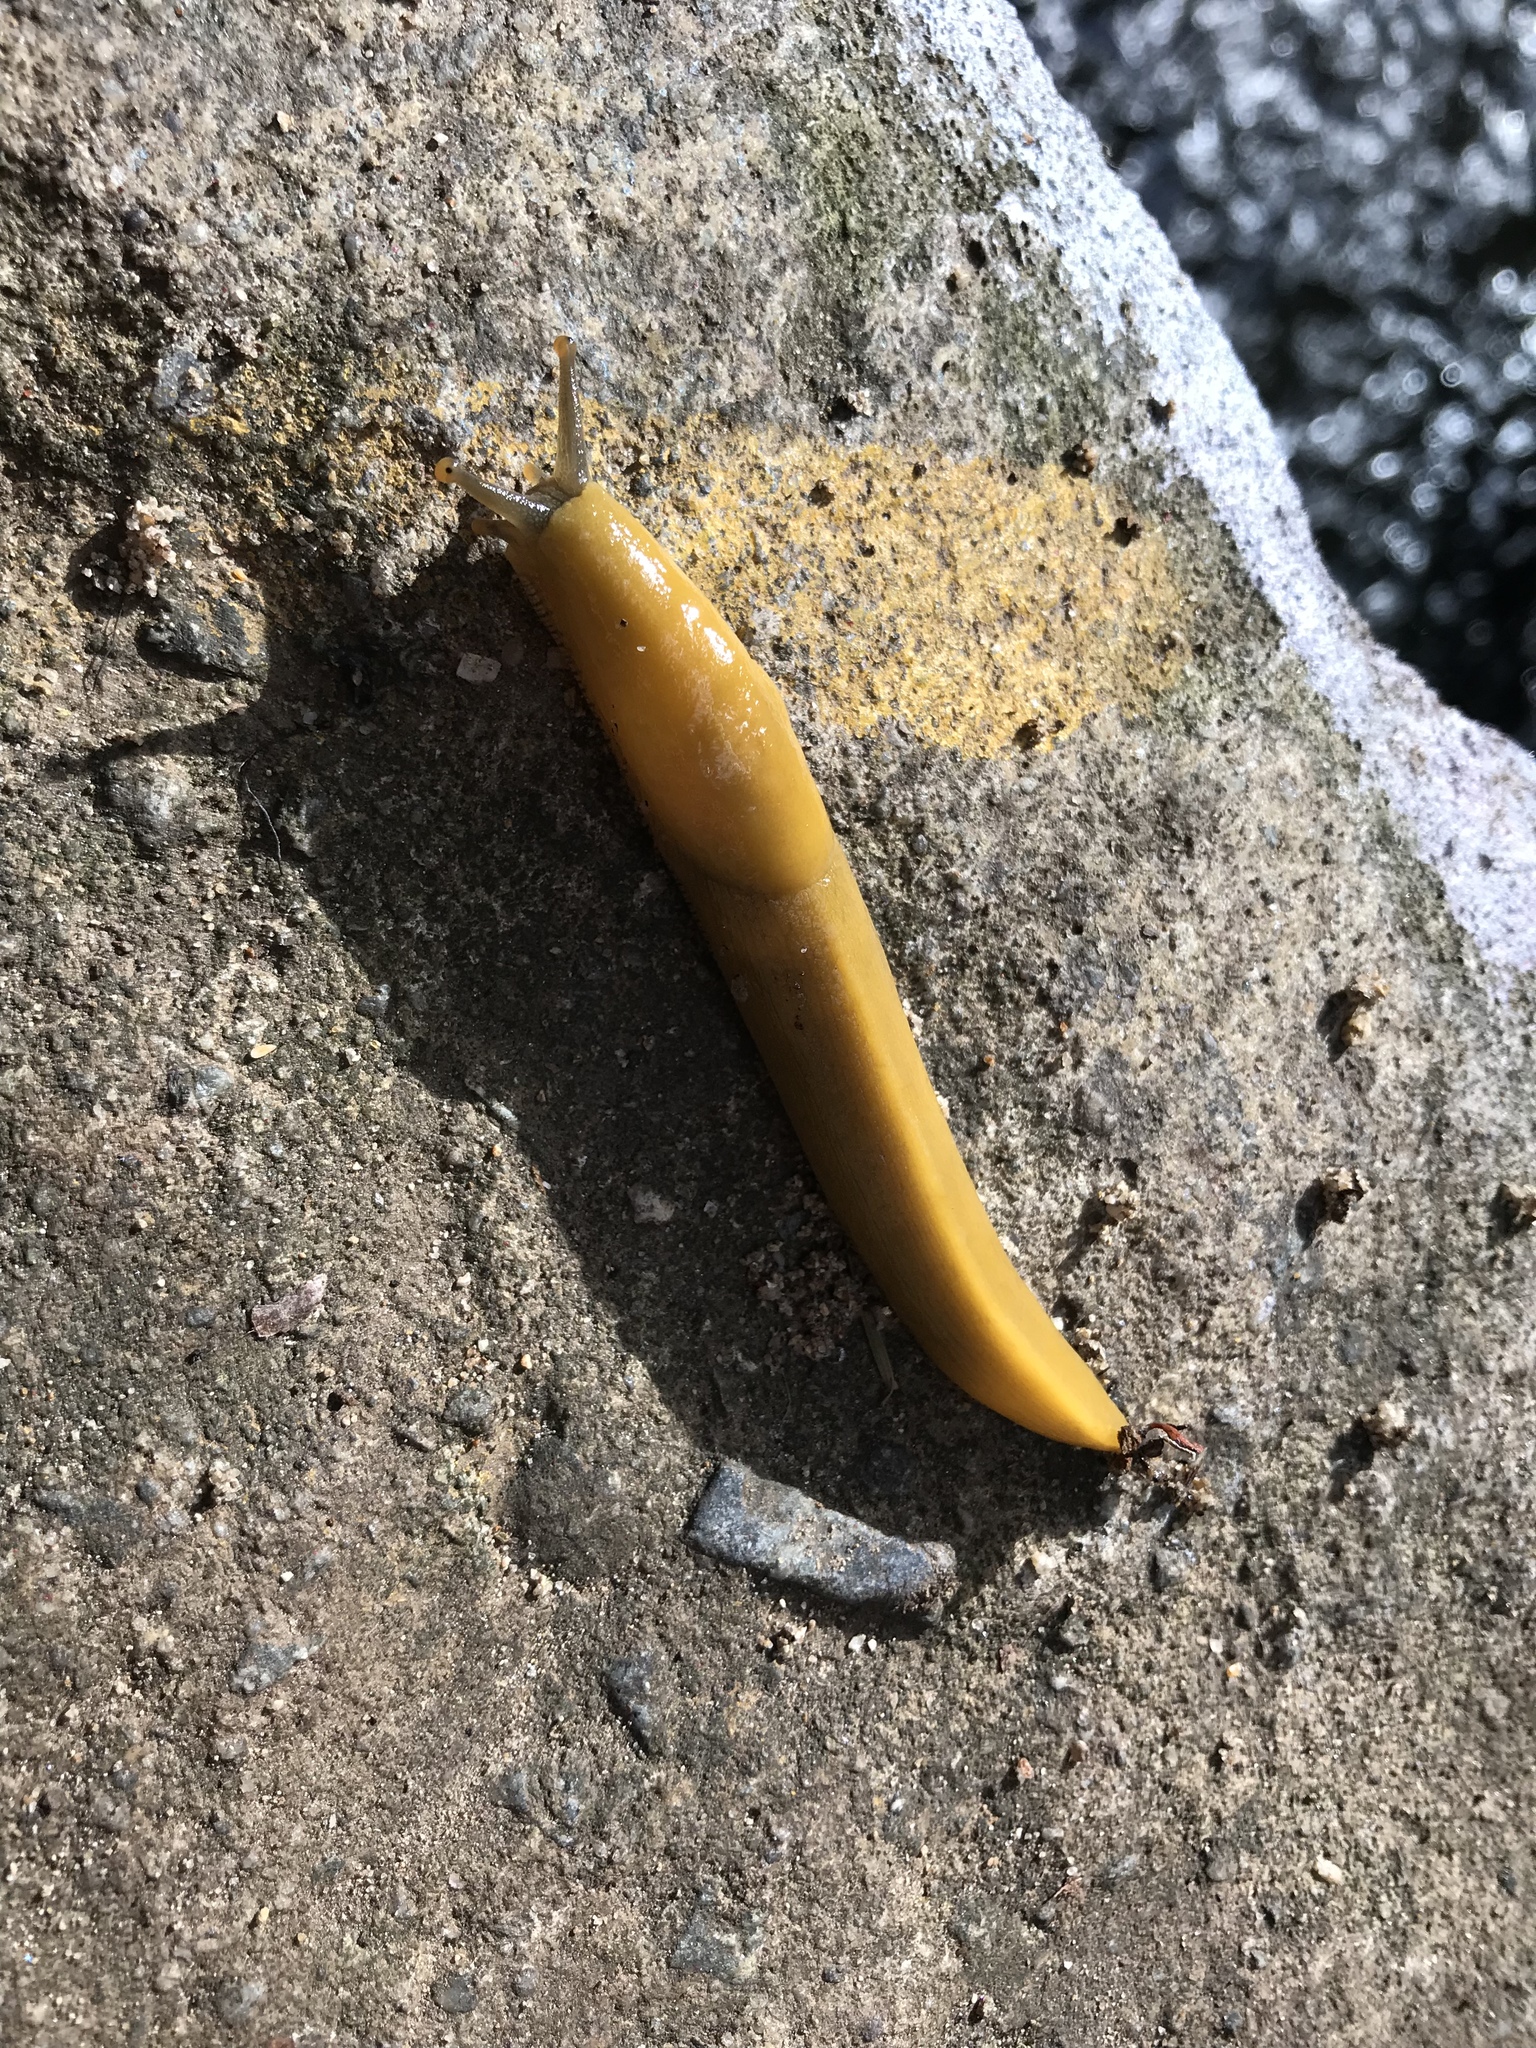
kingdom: Animalia
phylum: Mollusca
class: Gastropoda
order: Stylommatophora
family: Ariolimacidae
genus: Ariolimax
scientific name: Ariolimax dolichophallus
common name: Slender banana slug
